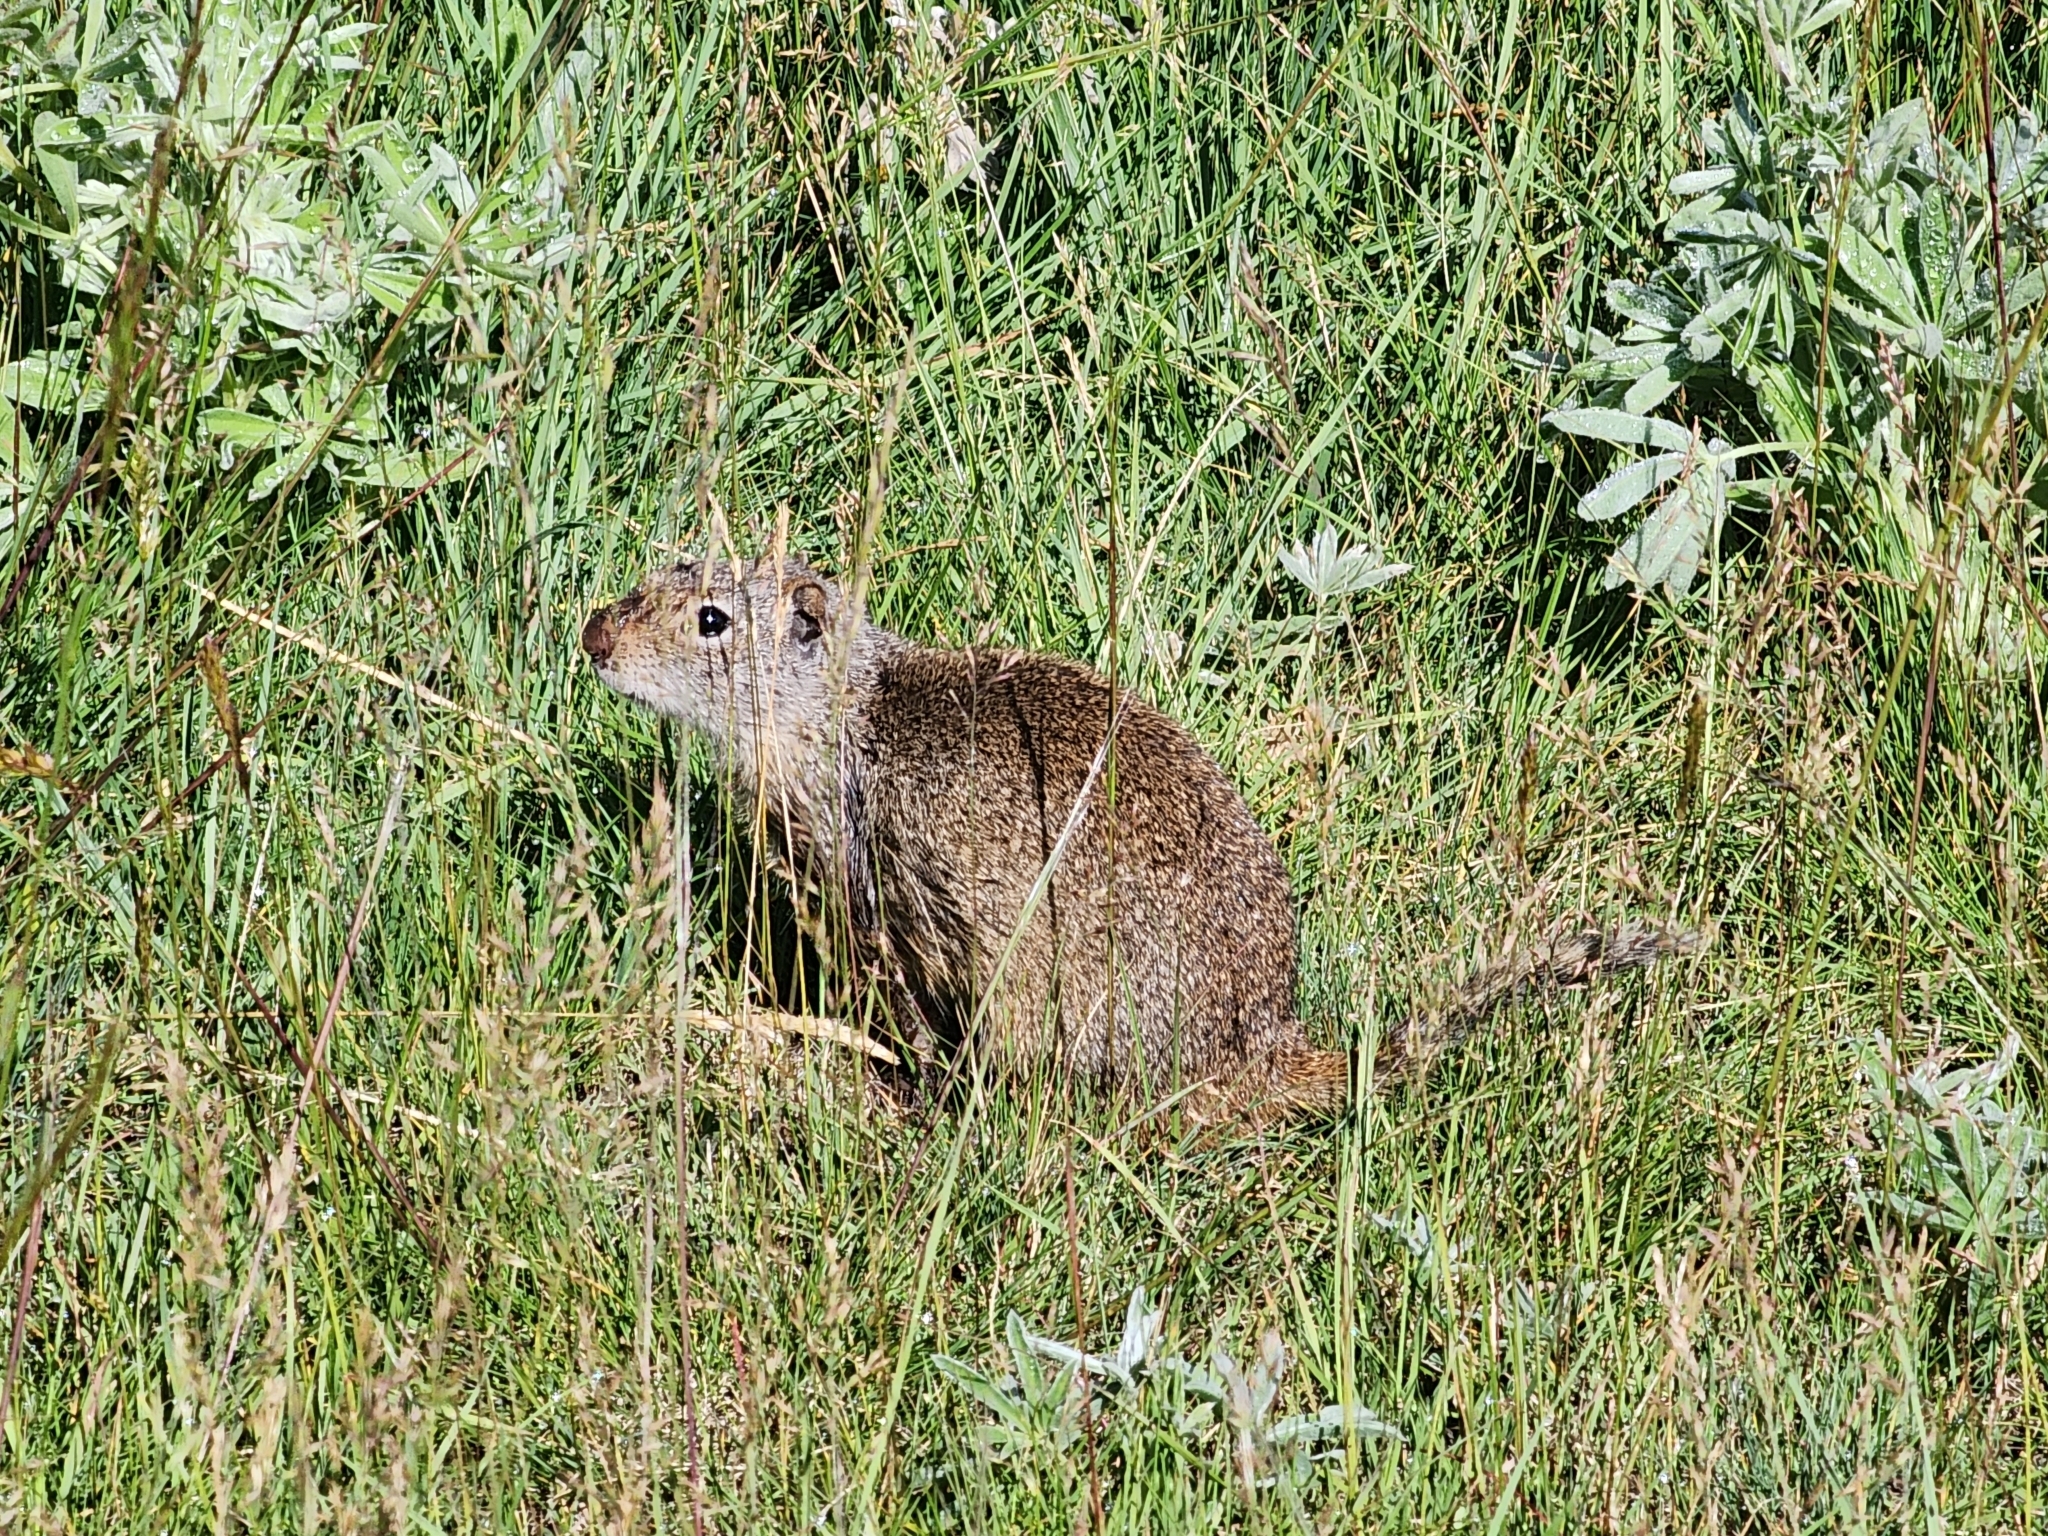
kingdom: Animalia
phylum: Chordata
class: Mammalia
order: Rodentia
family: Sciuridae
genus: Urocitellus
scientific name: Urocitellus armatus
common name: Uinta ground squirrel
